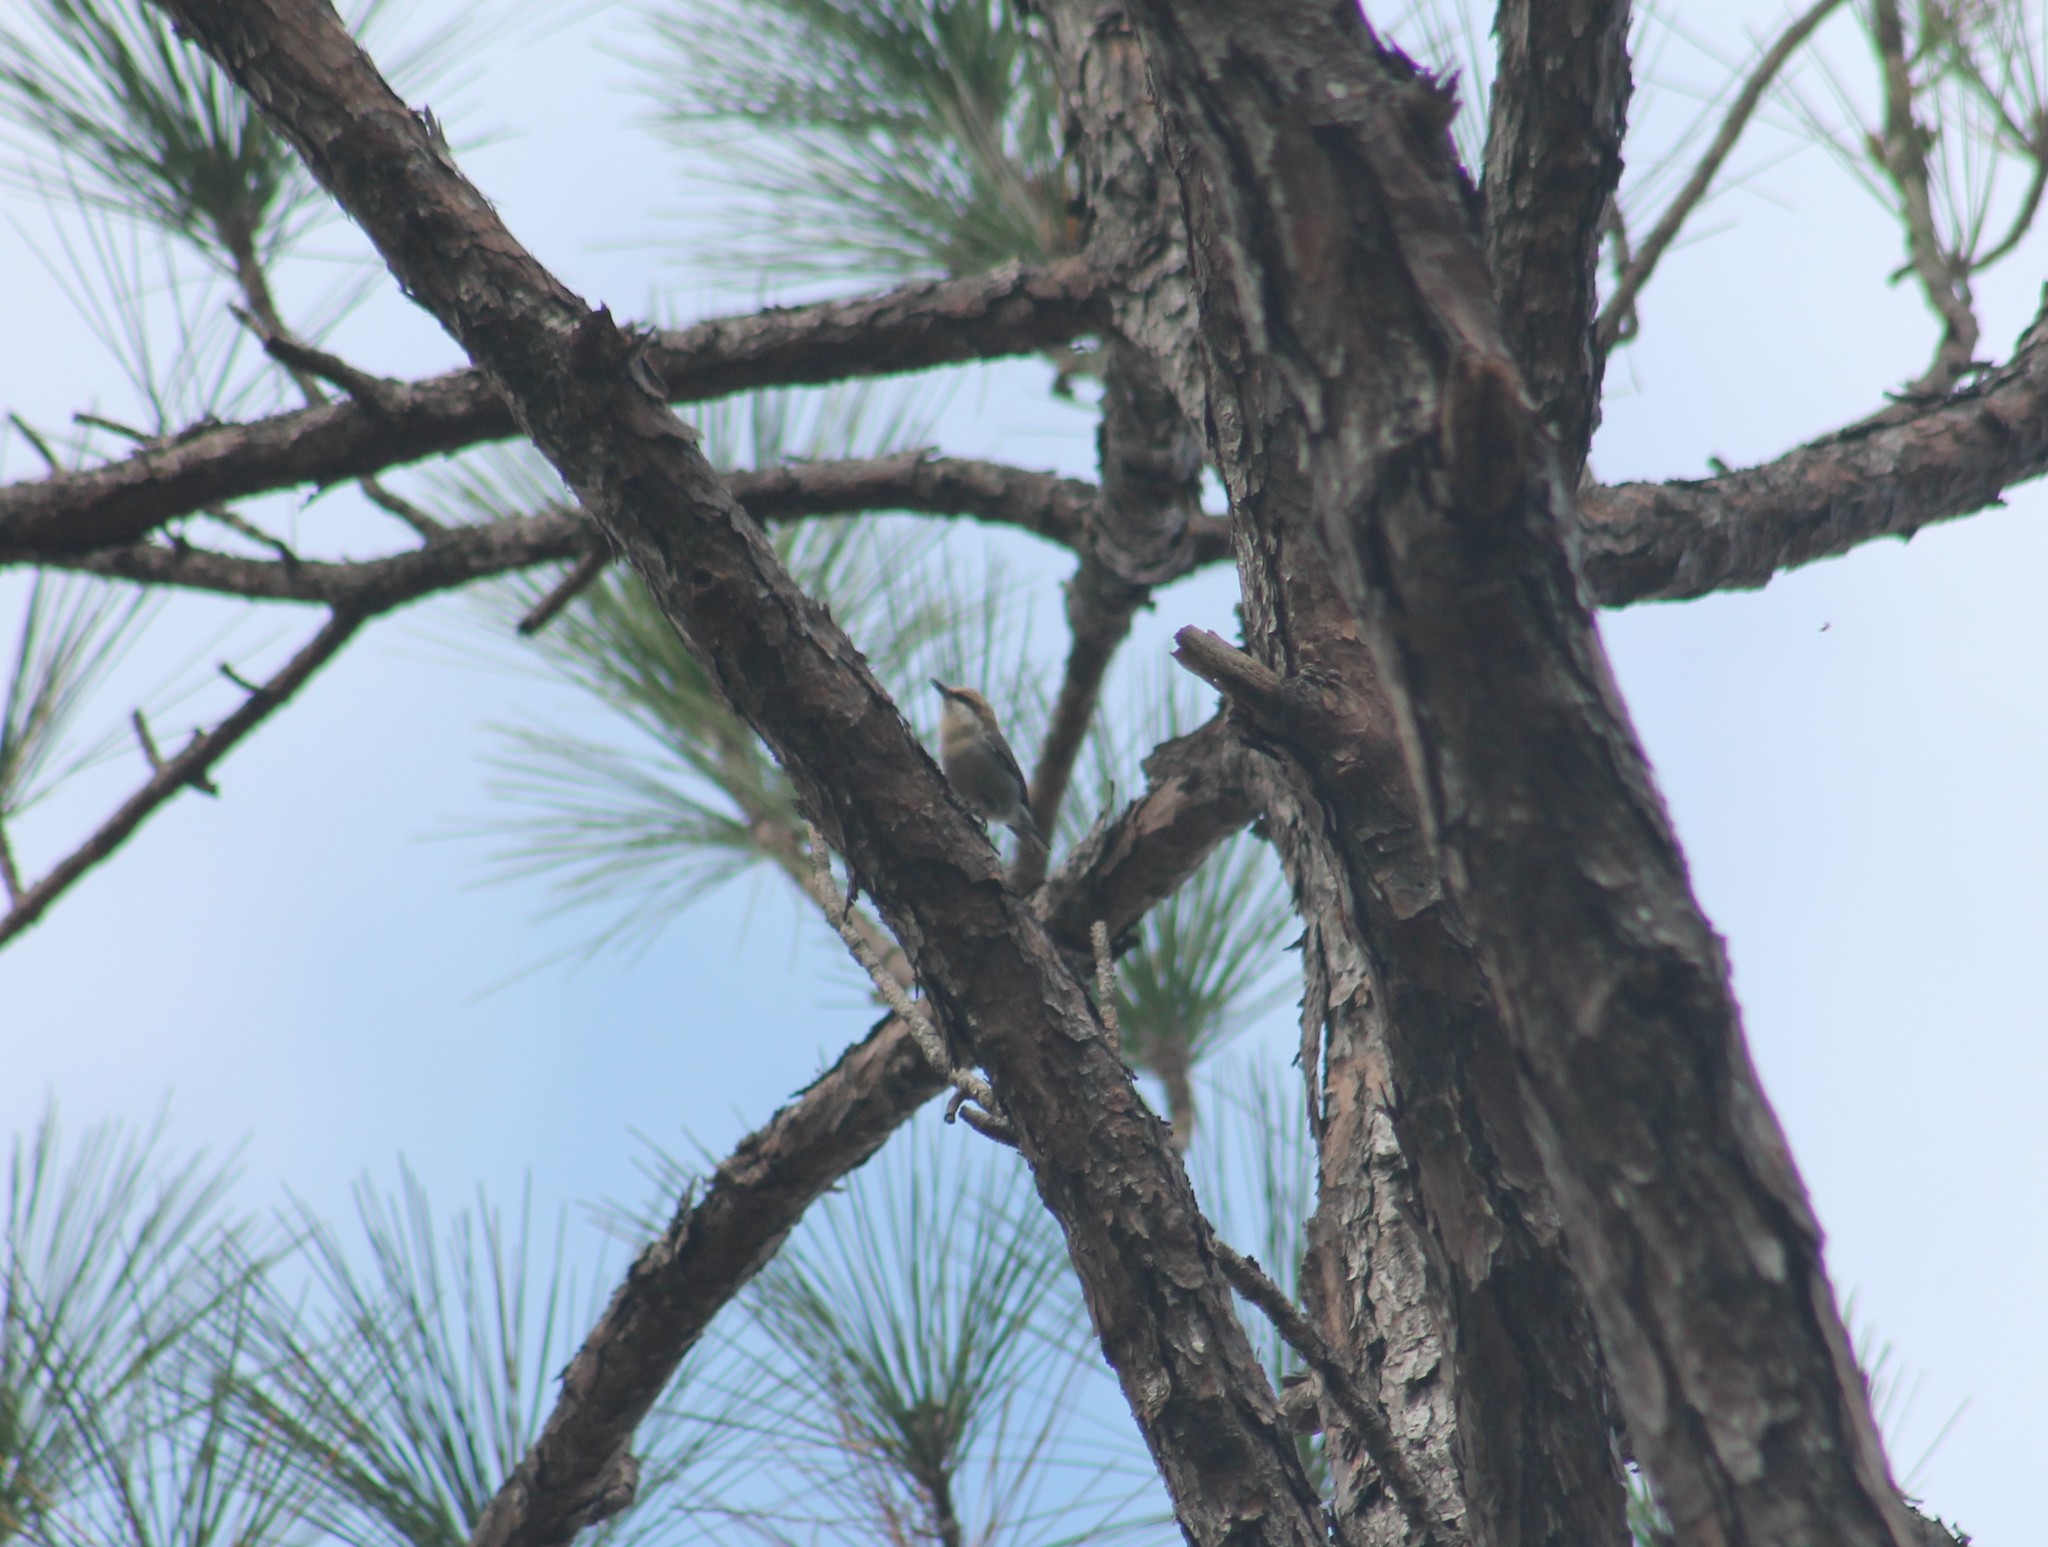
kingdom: Animalia
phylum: Chordata
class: Aves
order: Passeriformes
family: Sittidae
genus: Sitta
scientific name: Sitta pusilla
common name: Brown-headed nuthatch
